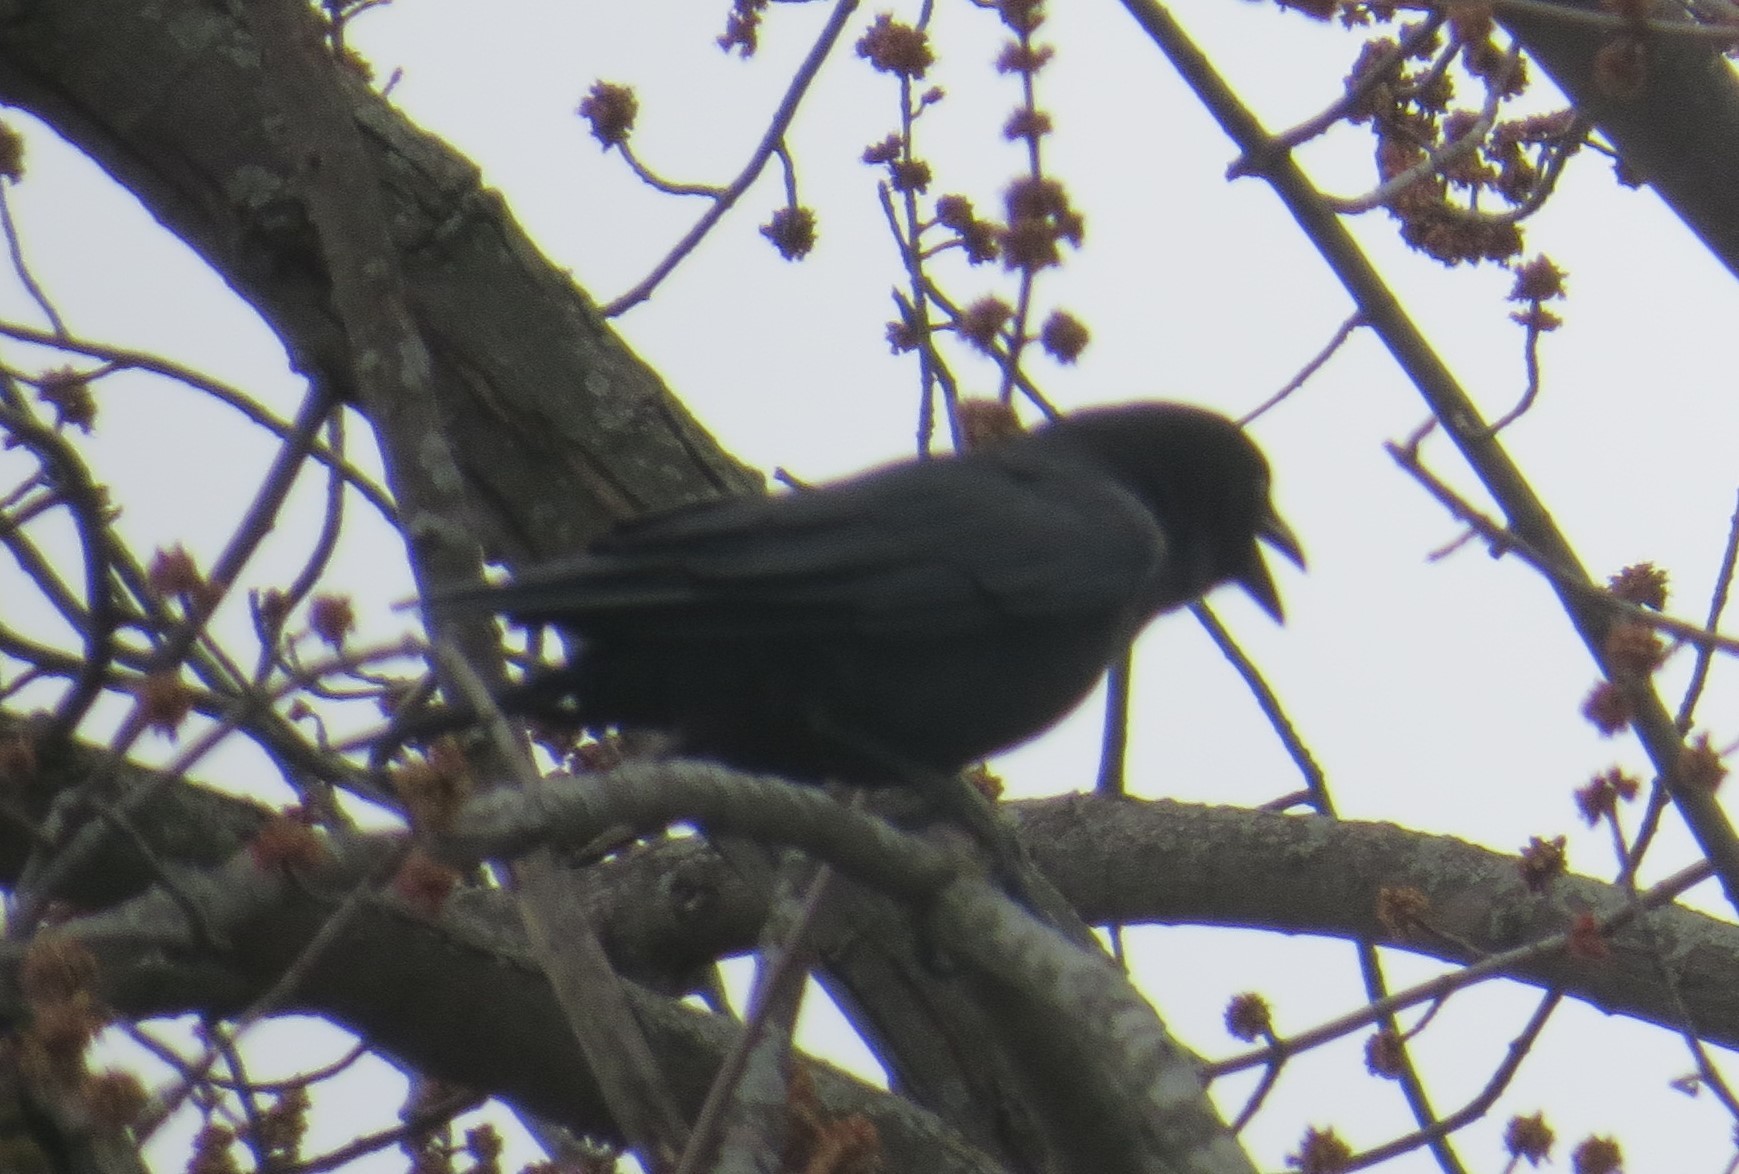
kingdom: Animalia
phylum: Chordata
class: Aves
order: Passeriformes
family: Corvidae
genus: Corvus
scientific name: Corvus brachyrhynchos
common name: American crow
